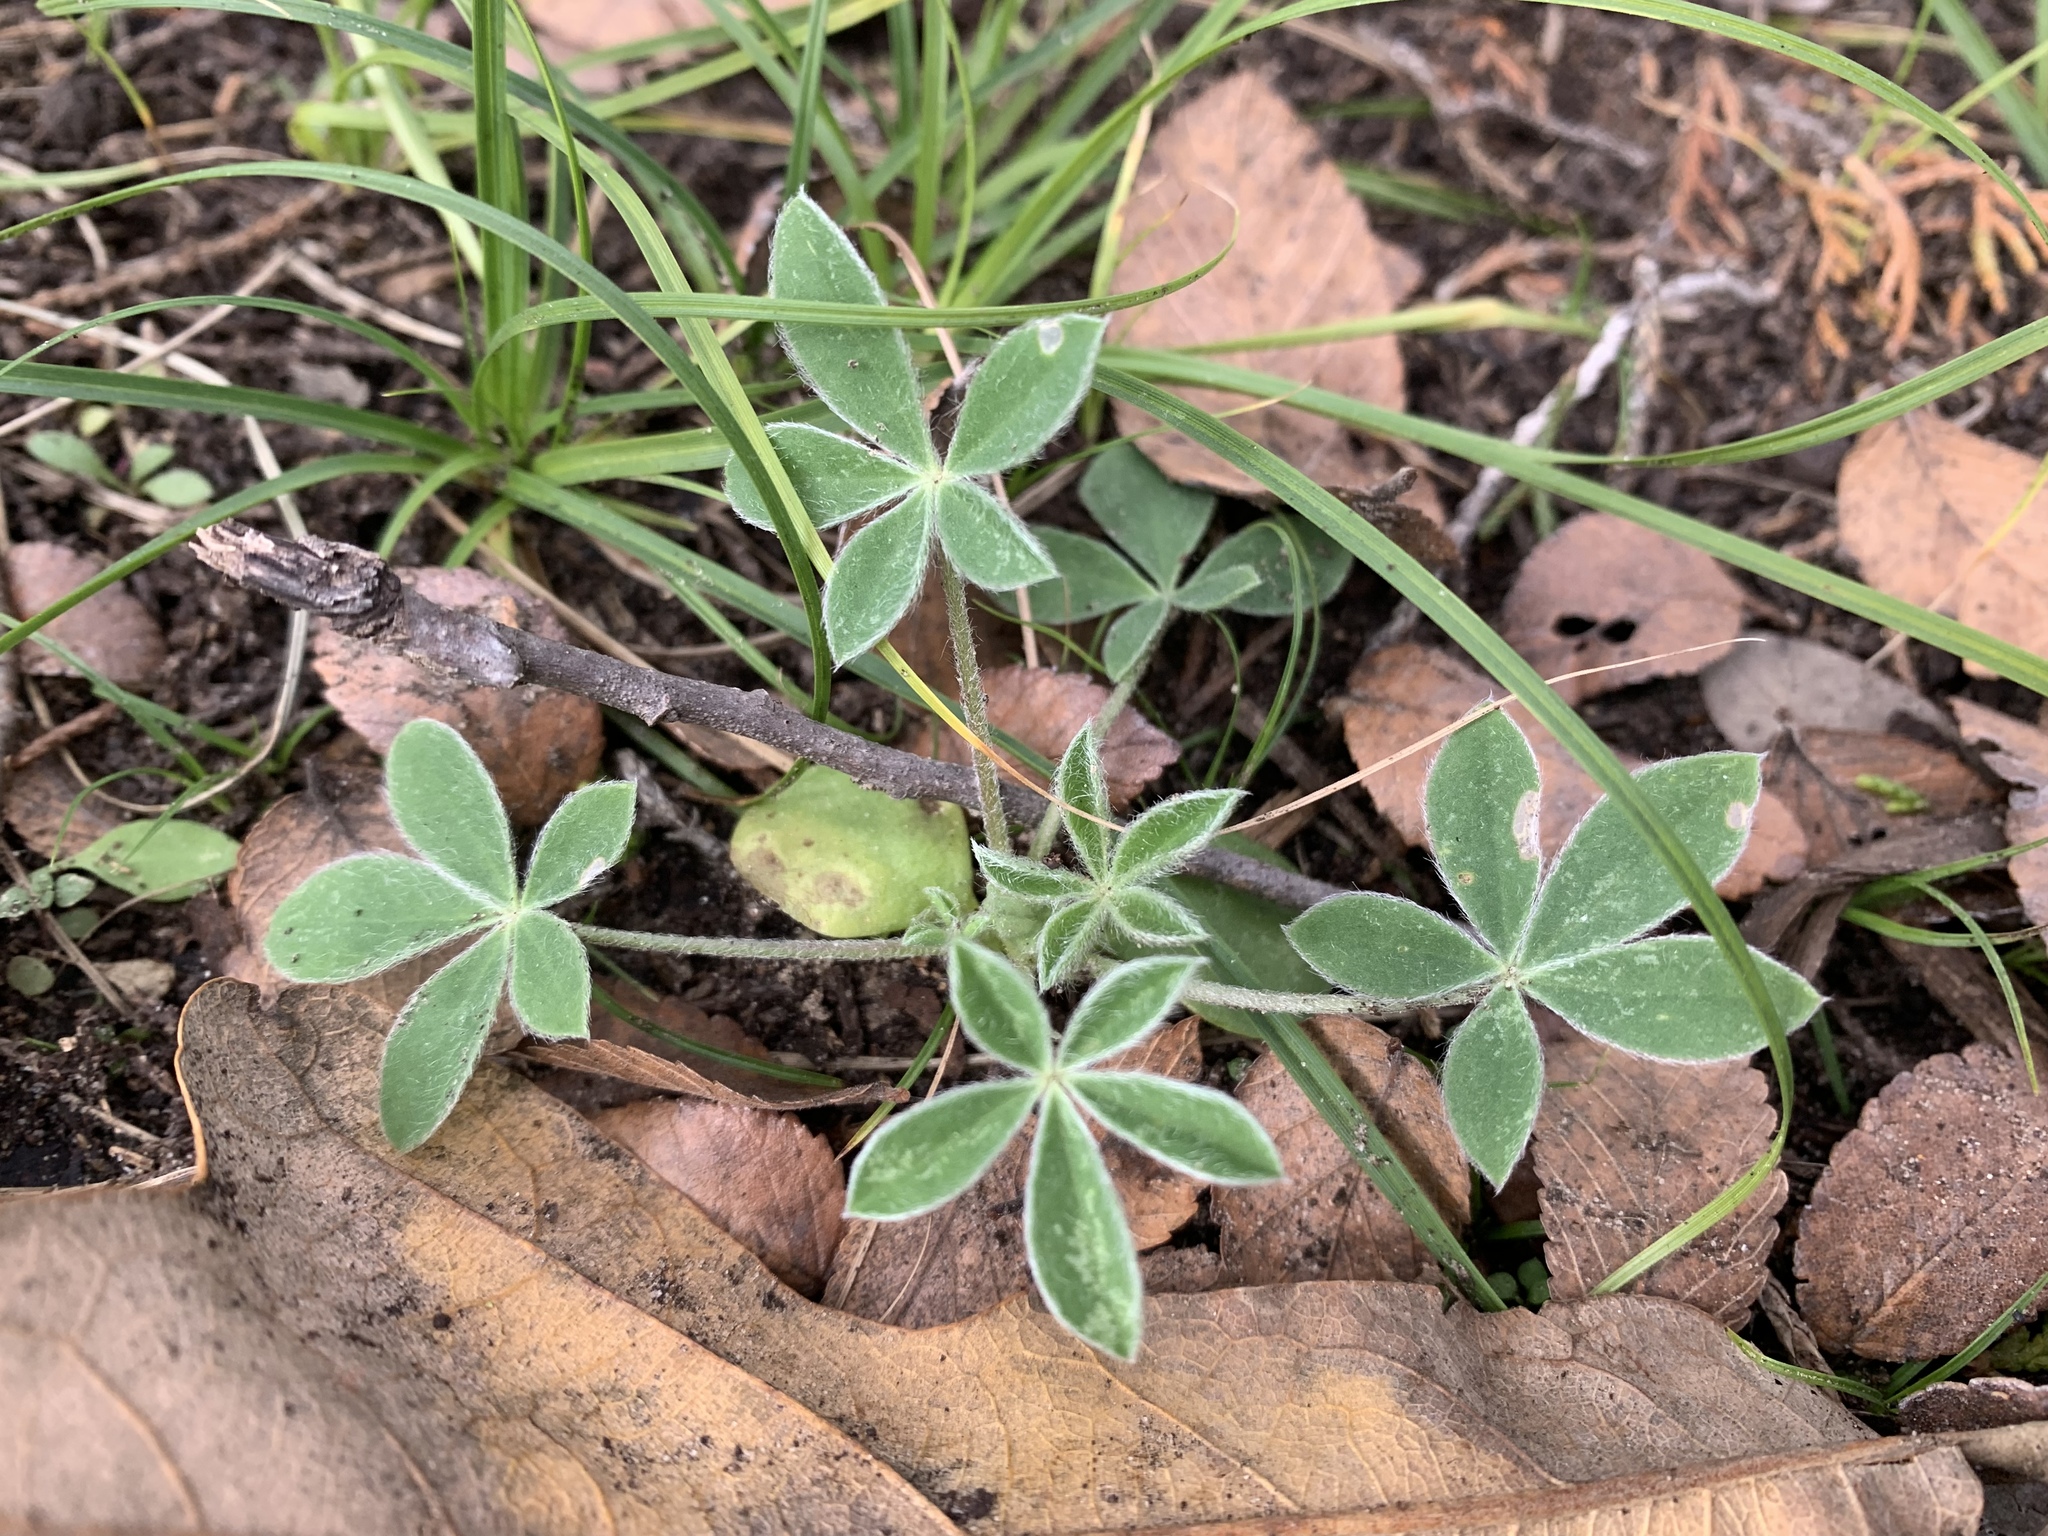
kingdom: Plantae
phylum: Tracheophyta
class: Magnoliopsida
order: Fabales
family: Fabaceae
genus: Lupinus
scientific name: Lupinus texensis
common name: Texas bluebonnet
